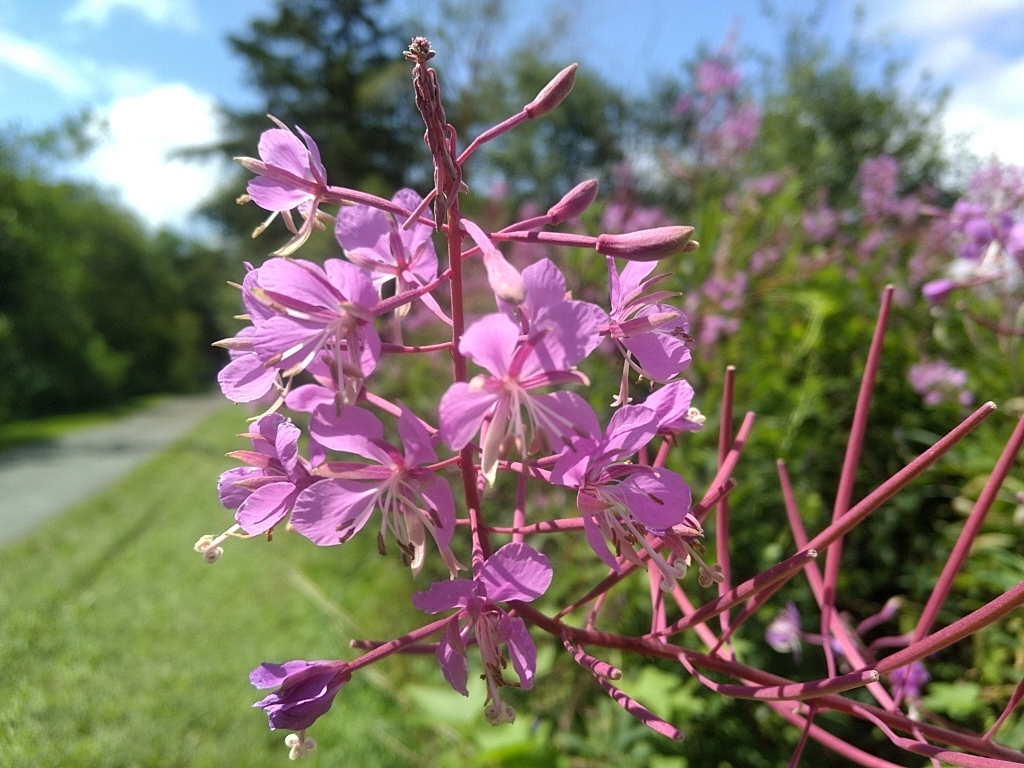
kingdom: Plantae
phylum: Tracheophyta
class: Magnoliopsida
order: Myrtales
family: Onagraceae
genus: Chamaenerion
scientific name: Chamaenerion angustifolium
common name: Fireweed
